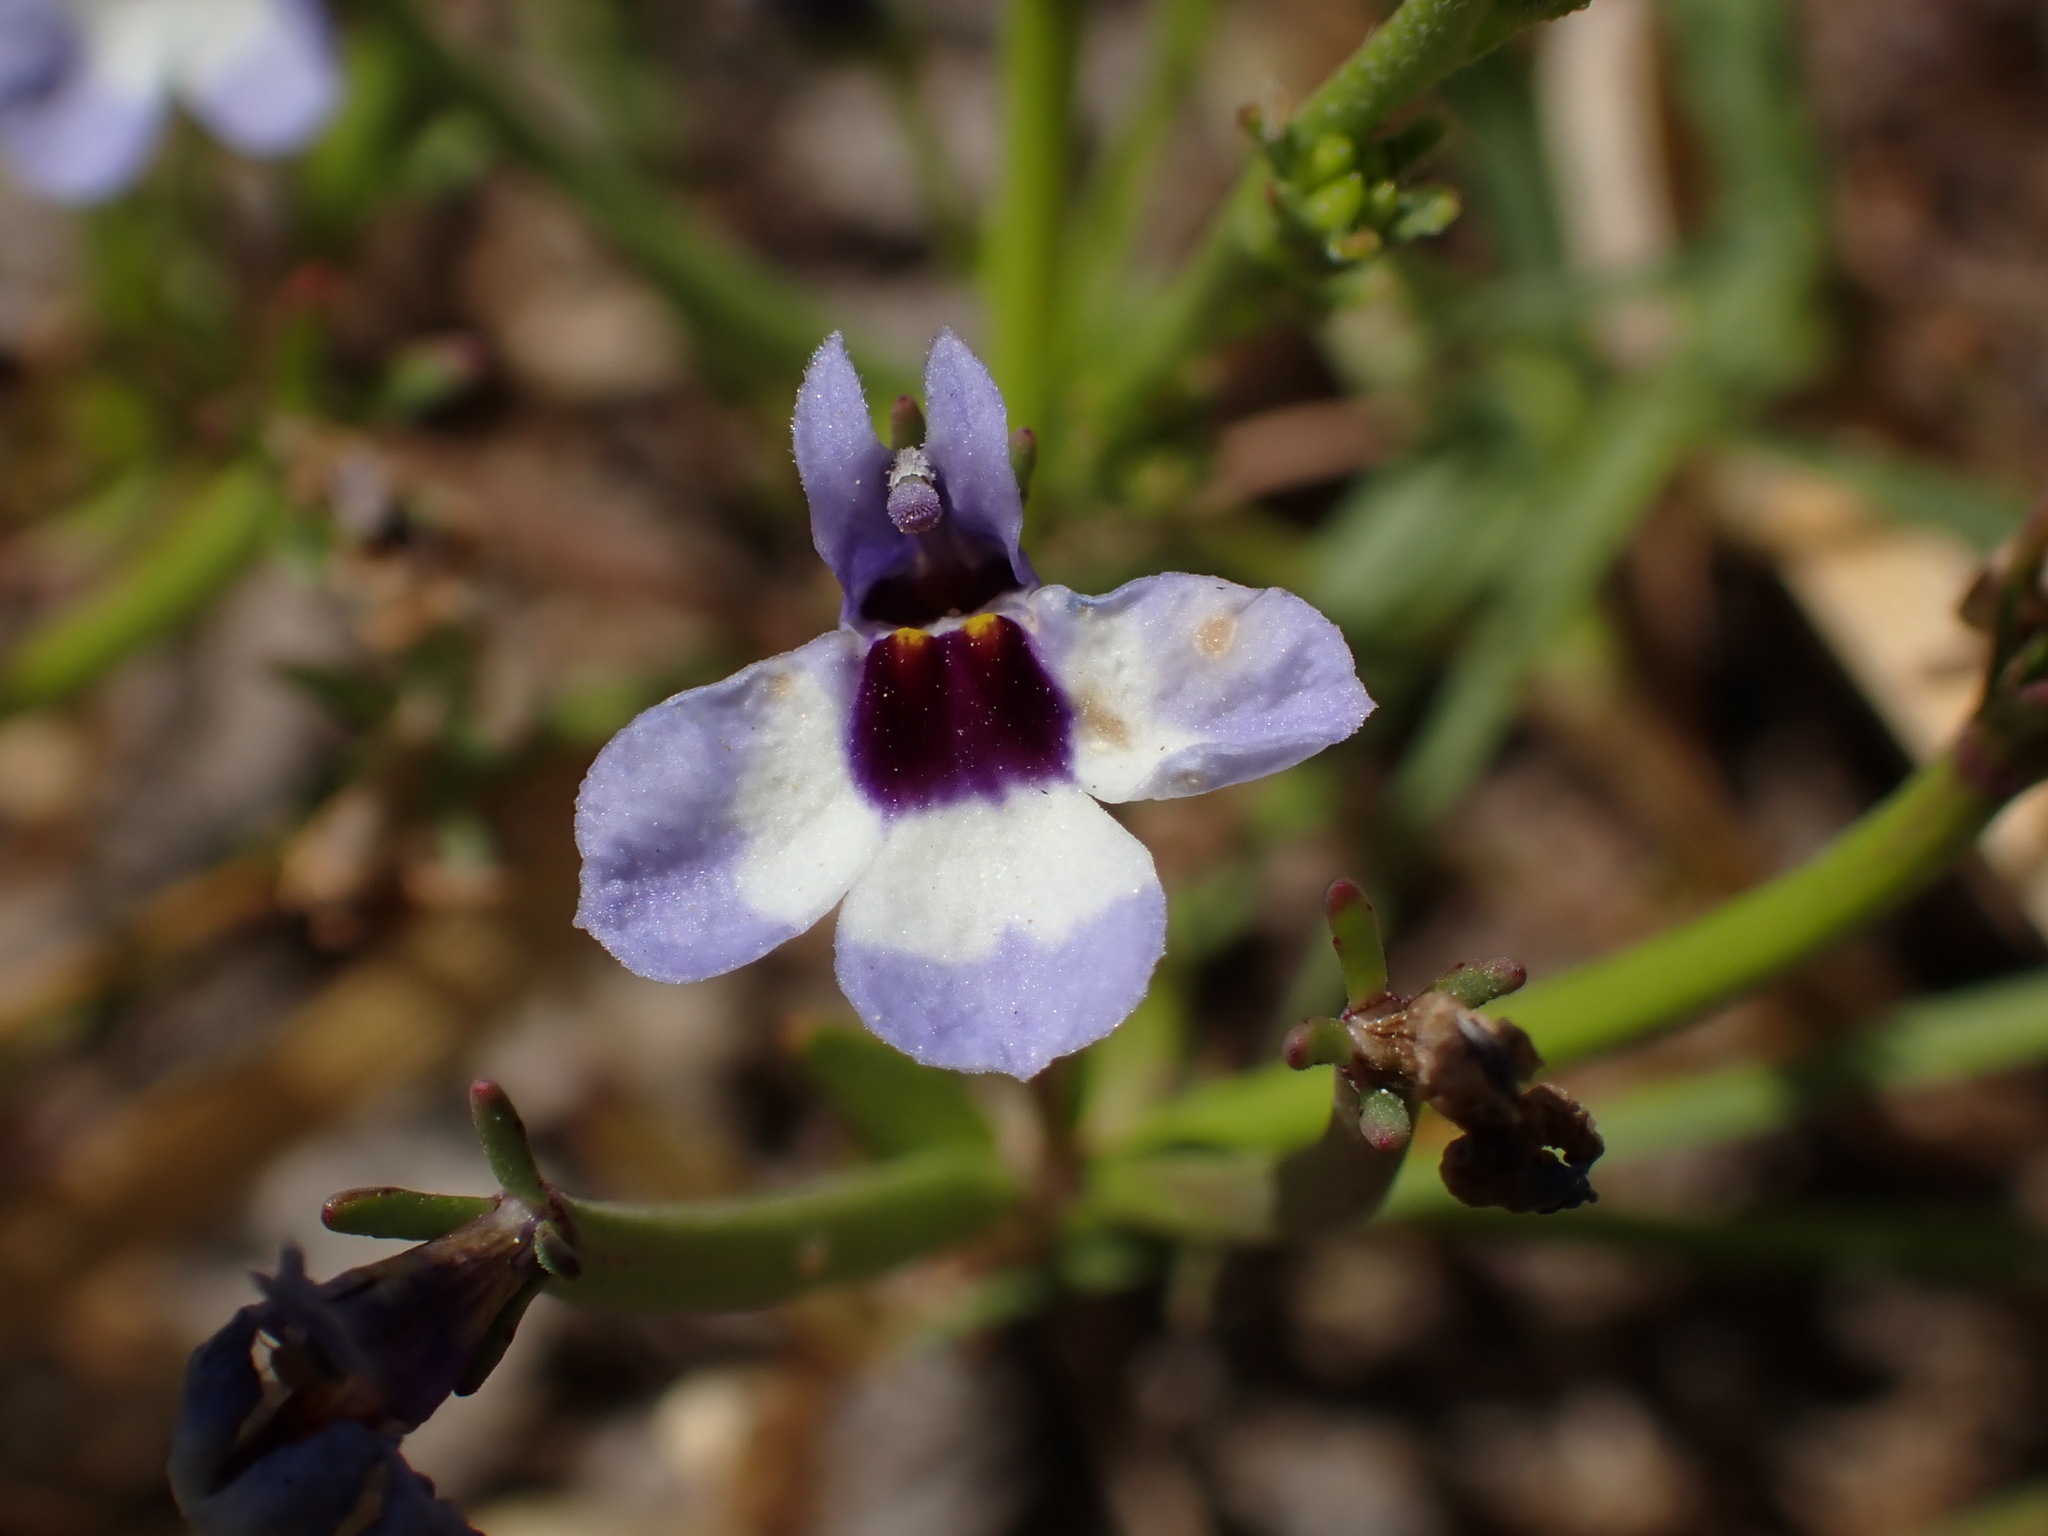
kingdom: Plantae
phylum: Tracheophyta
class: Magnoliopsida
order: Asterales
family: Campanulaceae
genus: Downingia
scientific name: Downingia concolor
